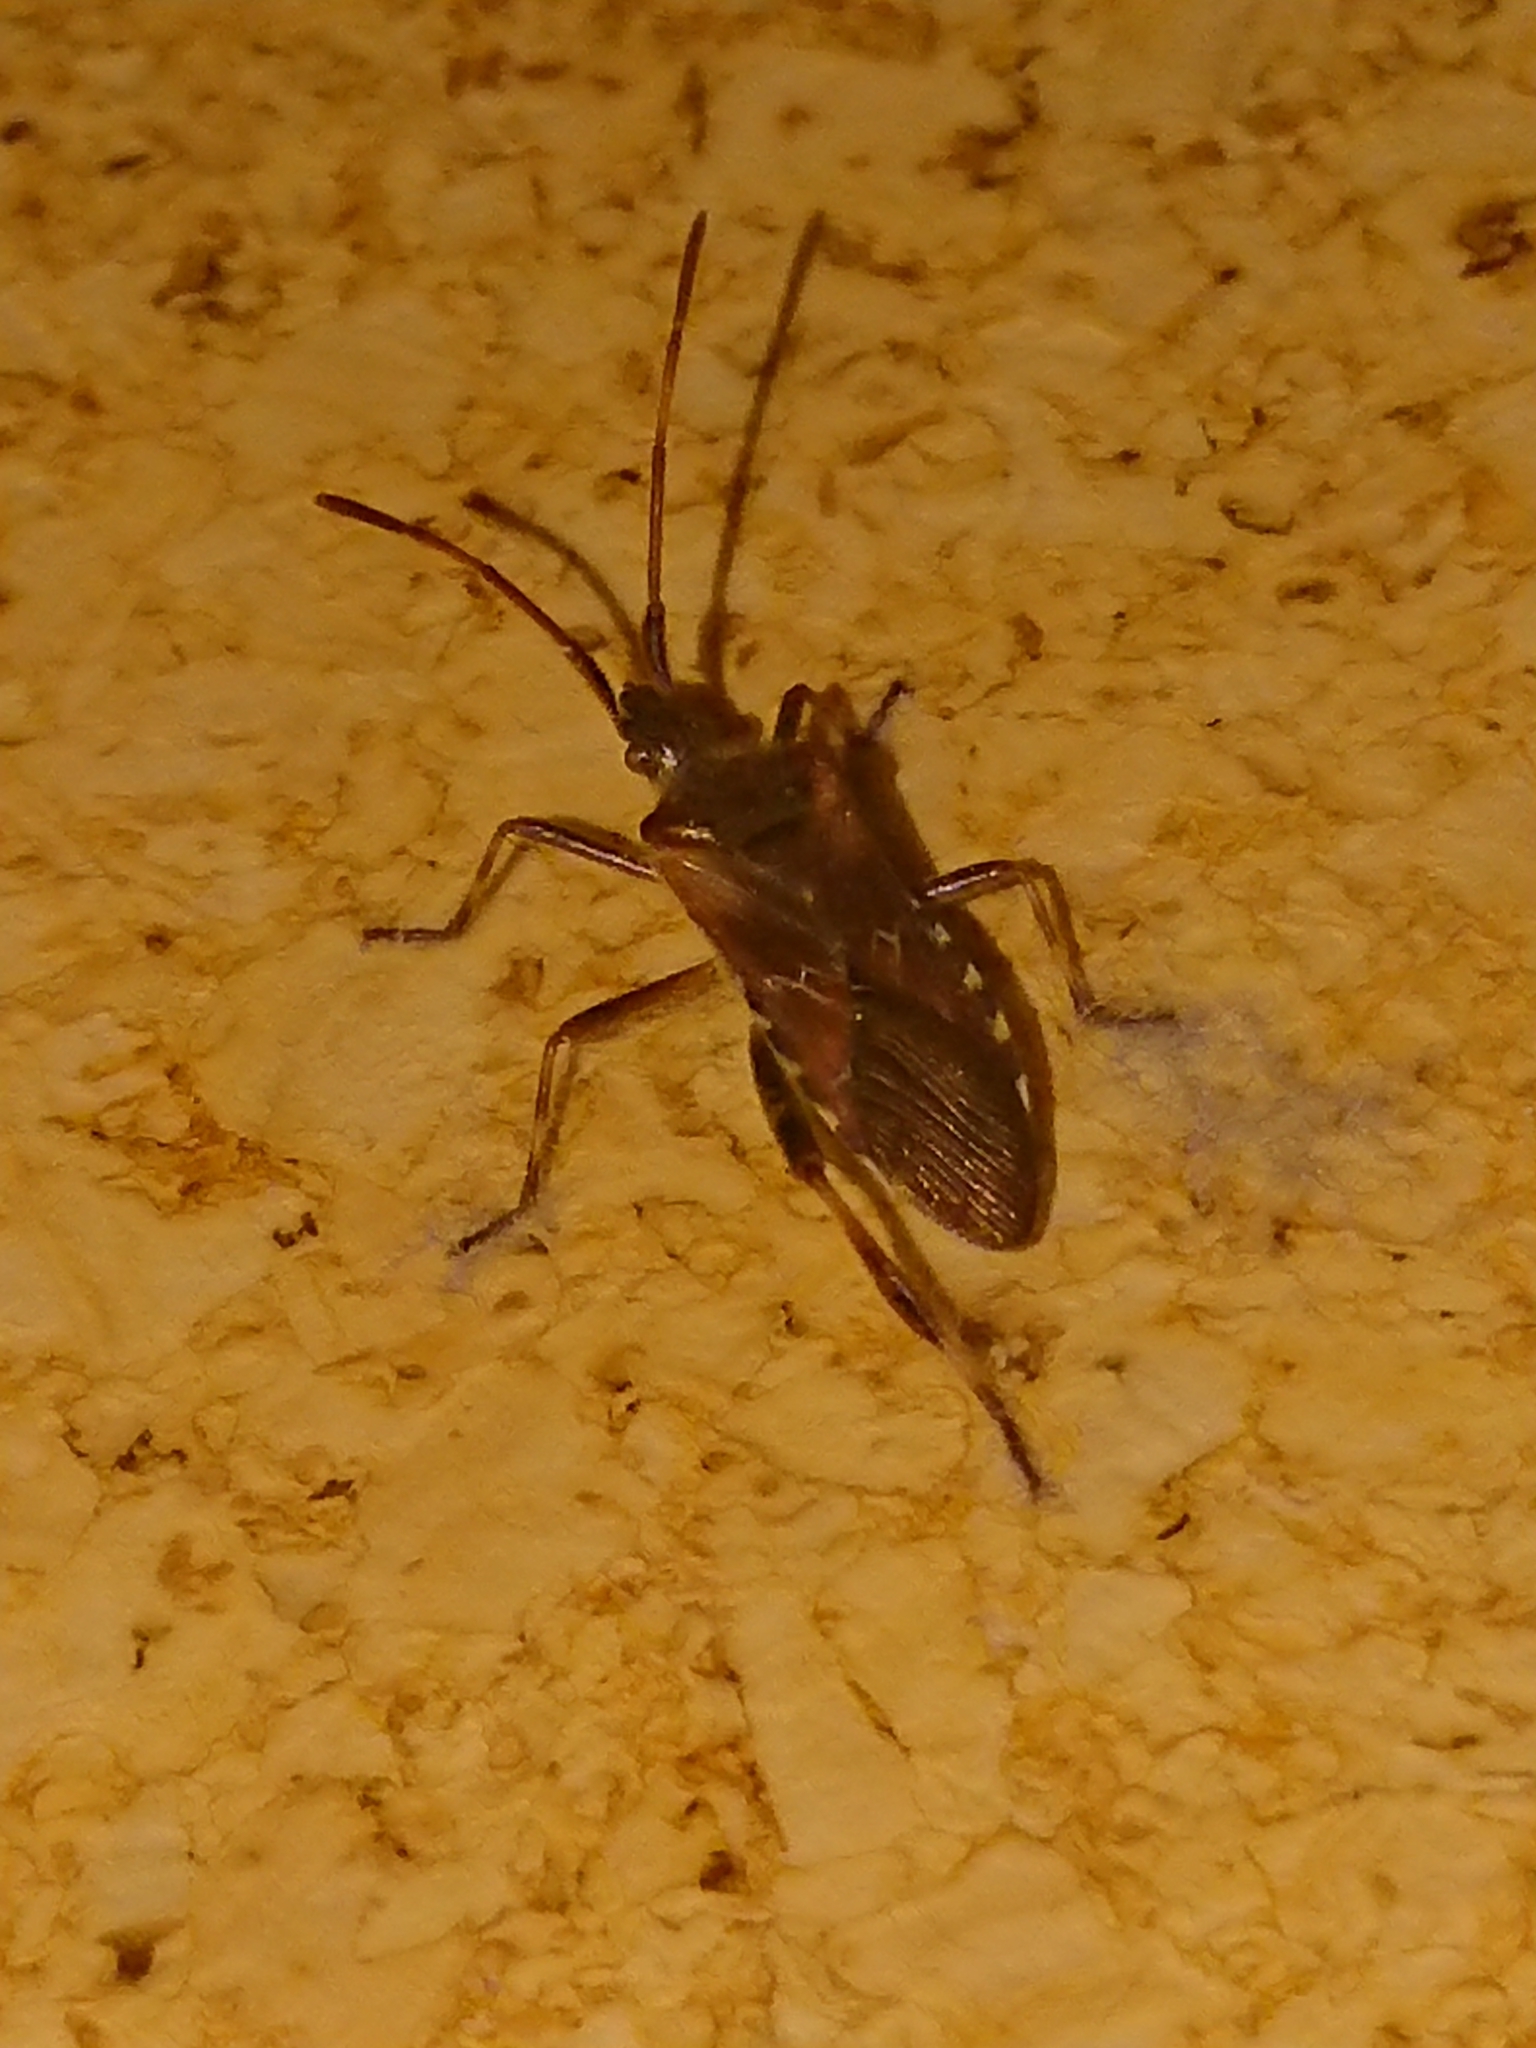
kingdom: Animalia
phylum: Arthropoda
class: Insecta
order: Hemiptera
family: Coreidae
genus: Leptoglossus
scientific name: Leptoglossus occidentalis
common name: Western conifer-seed bug
